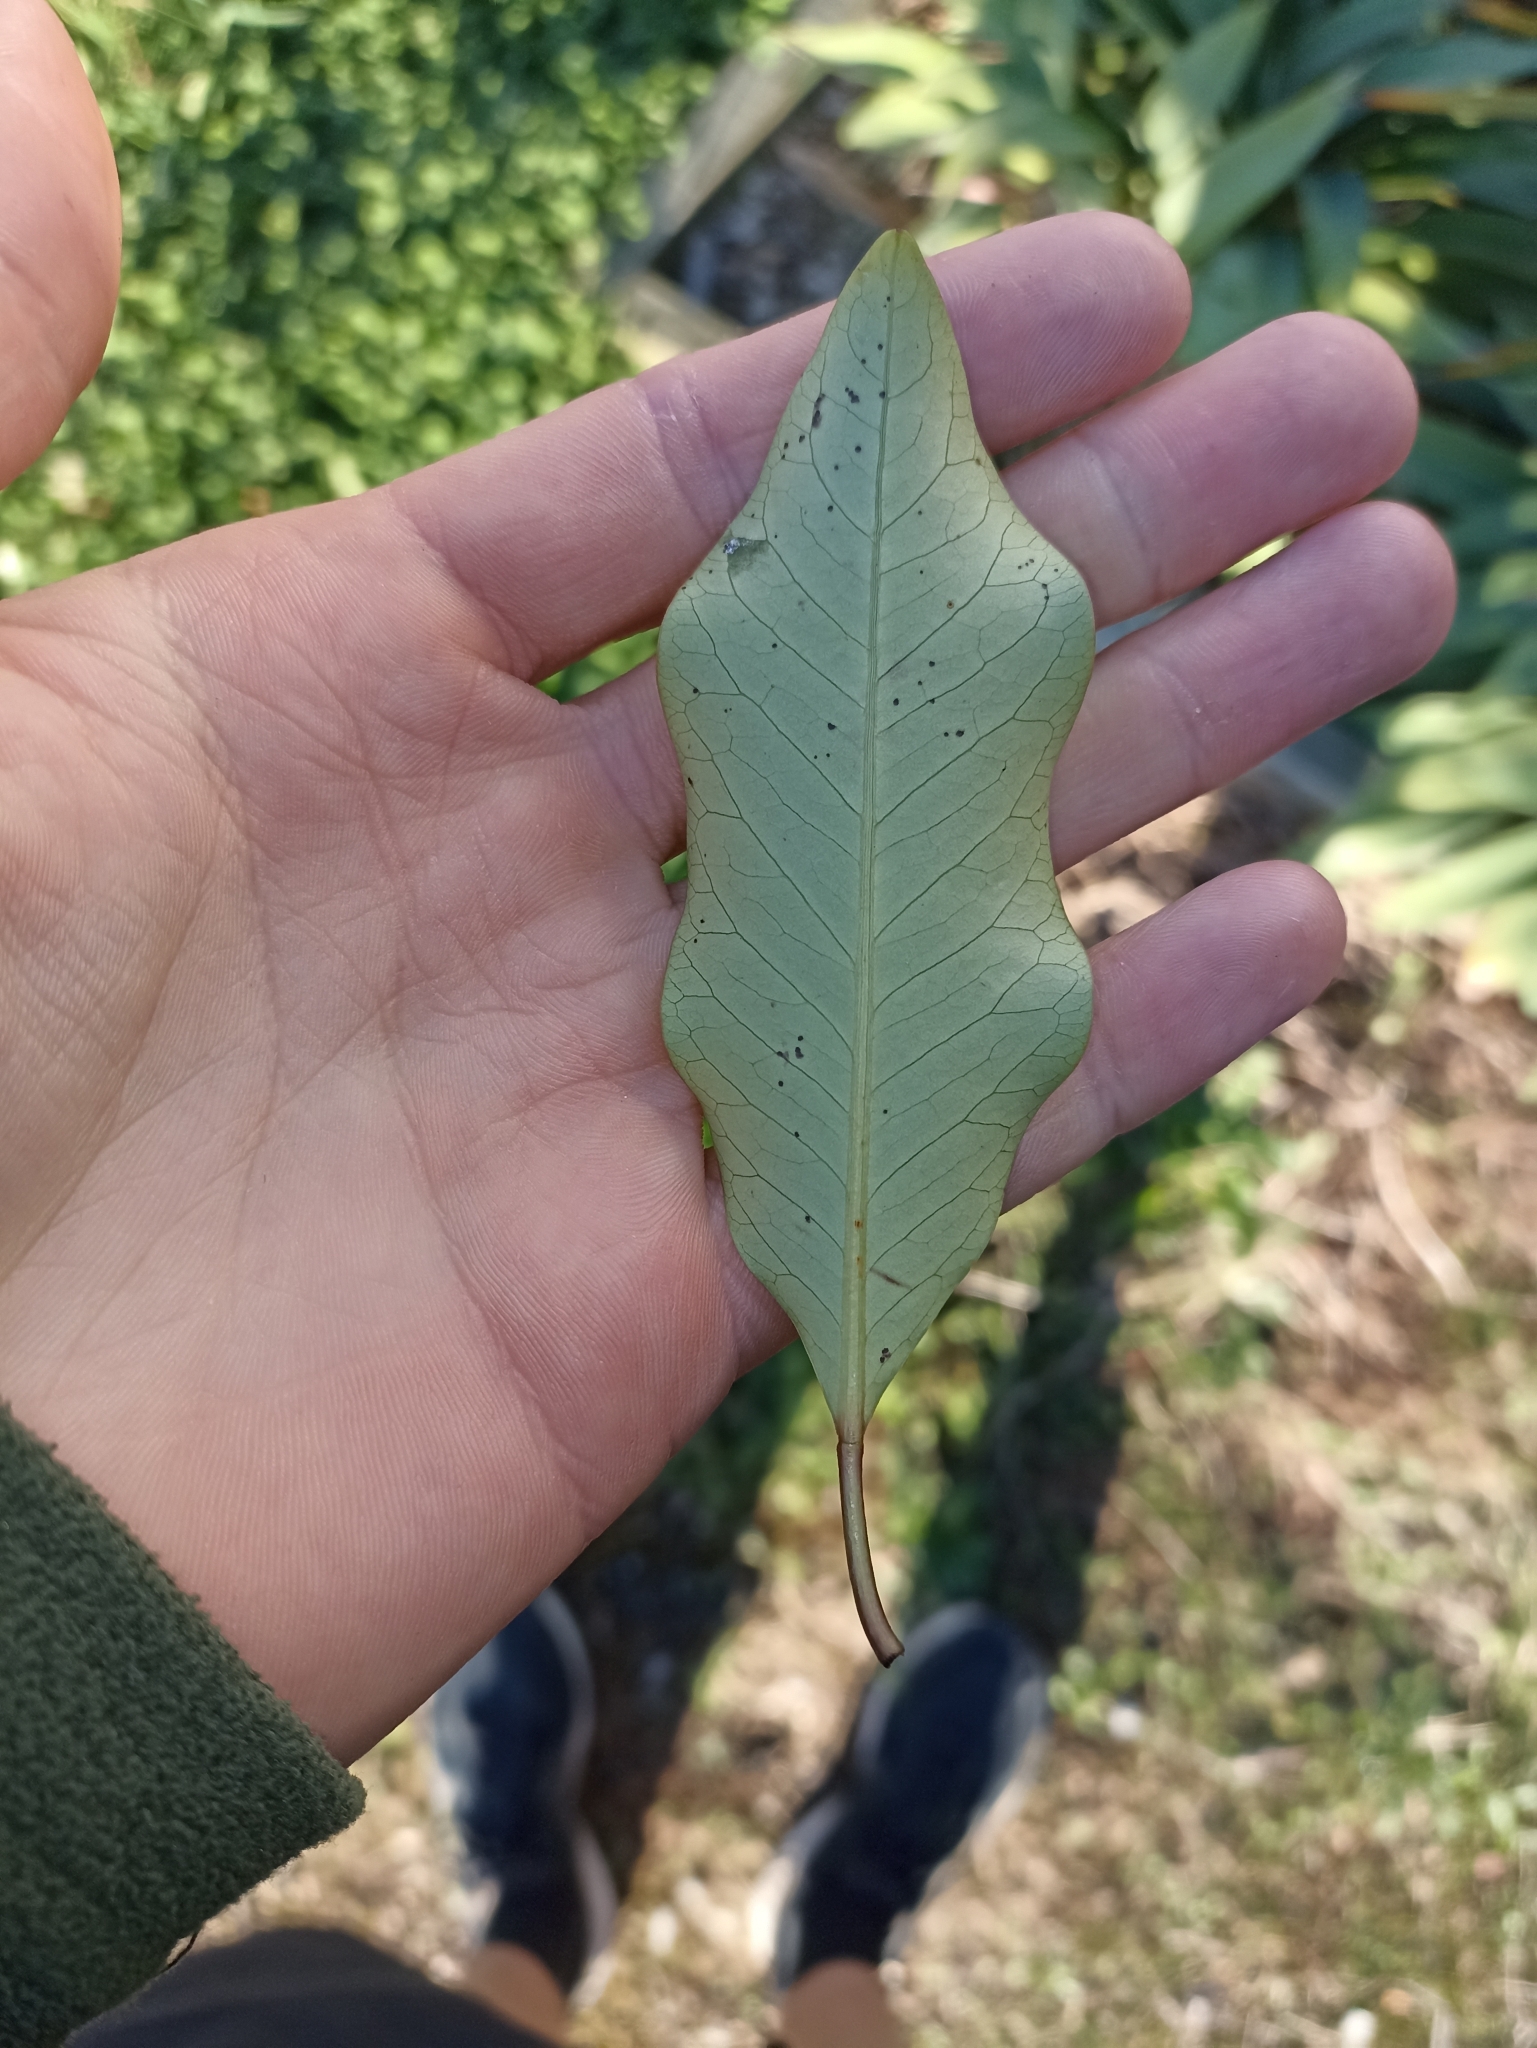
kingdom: Plantae
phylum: Tracheophyta
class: Magnoliopsida
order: Apiales
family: Araliaceae
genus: Raukaua
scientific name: Raukaua edgerleyi
